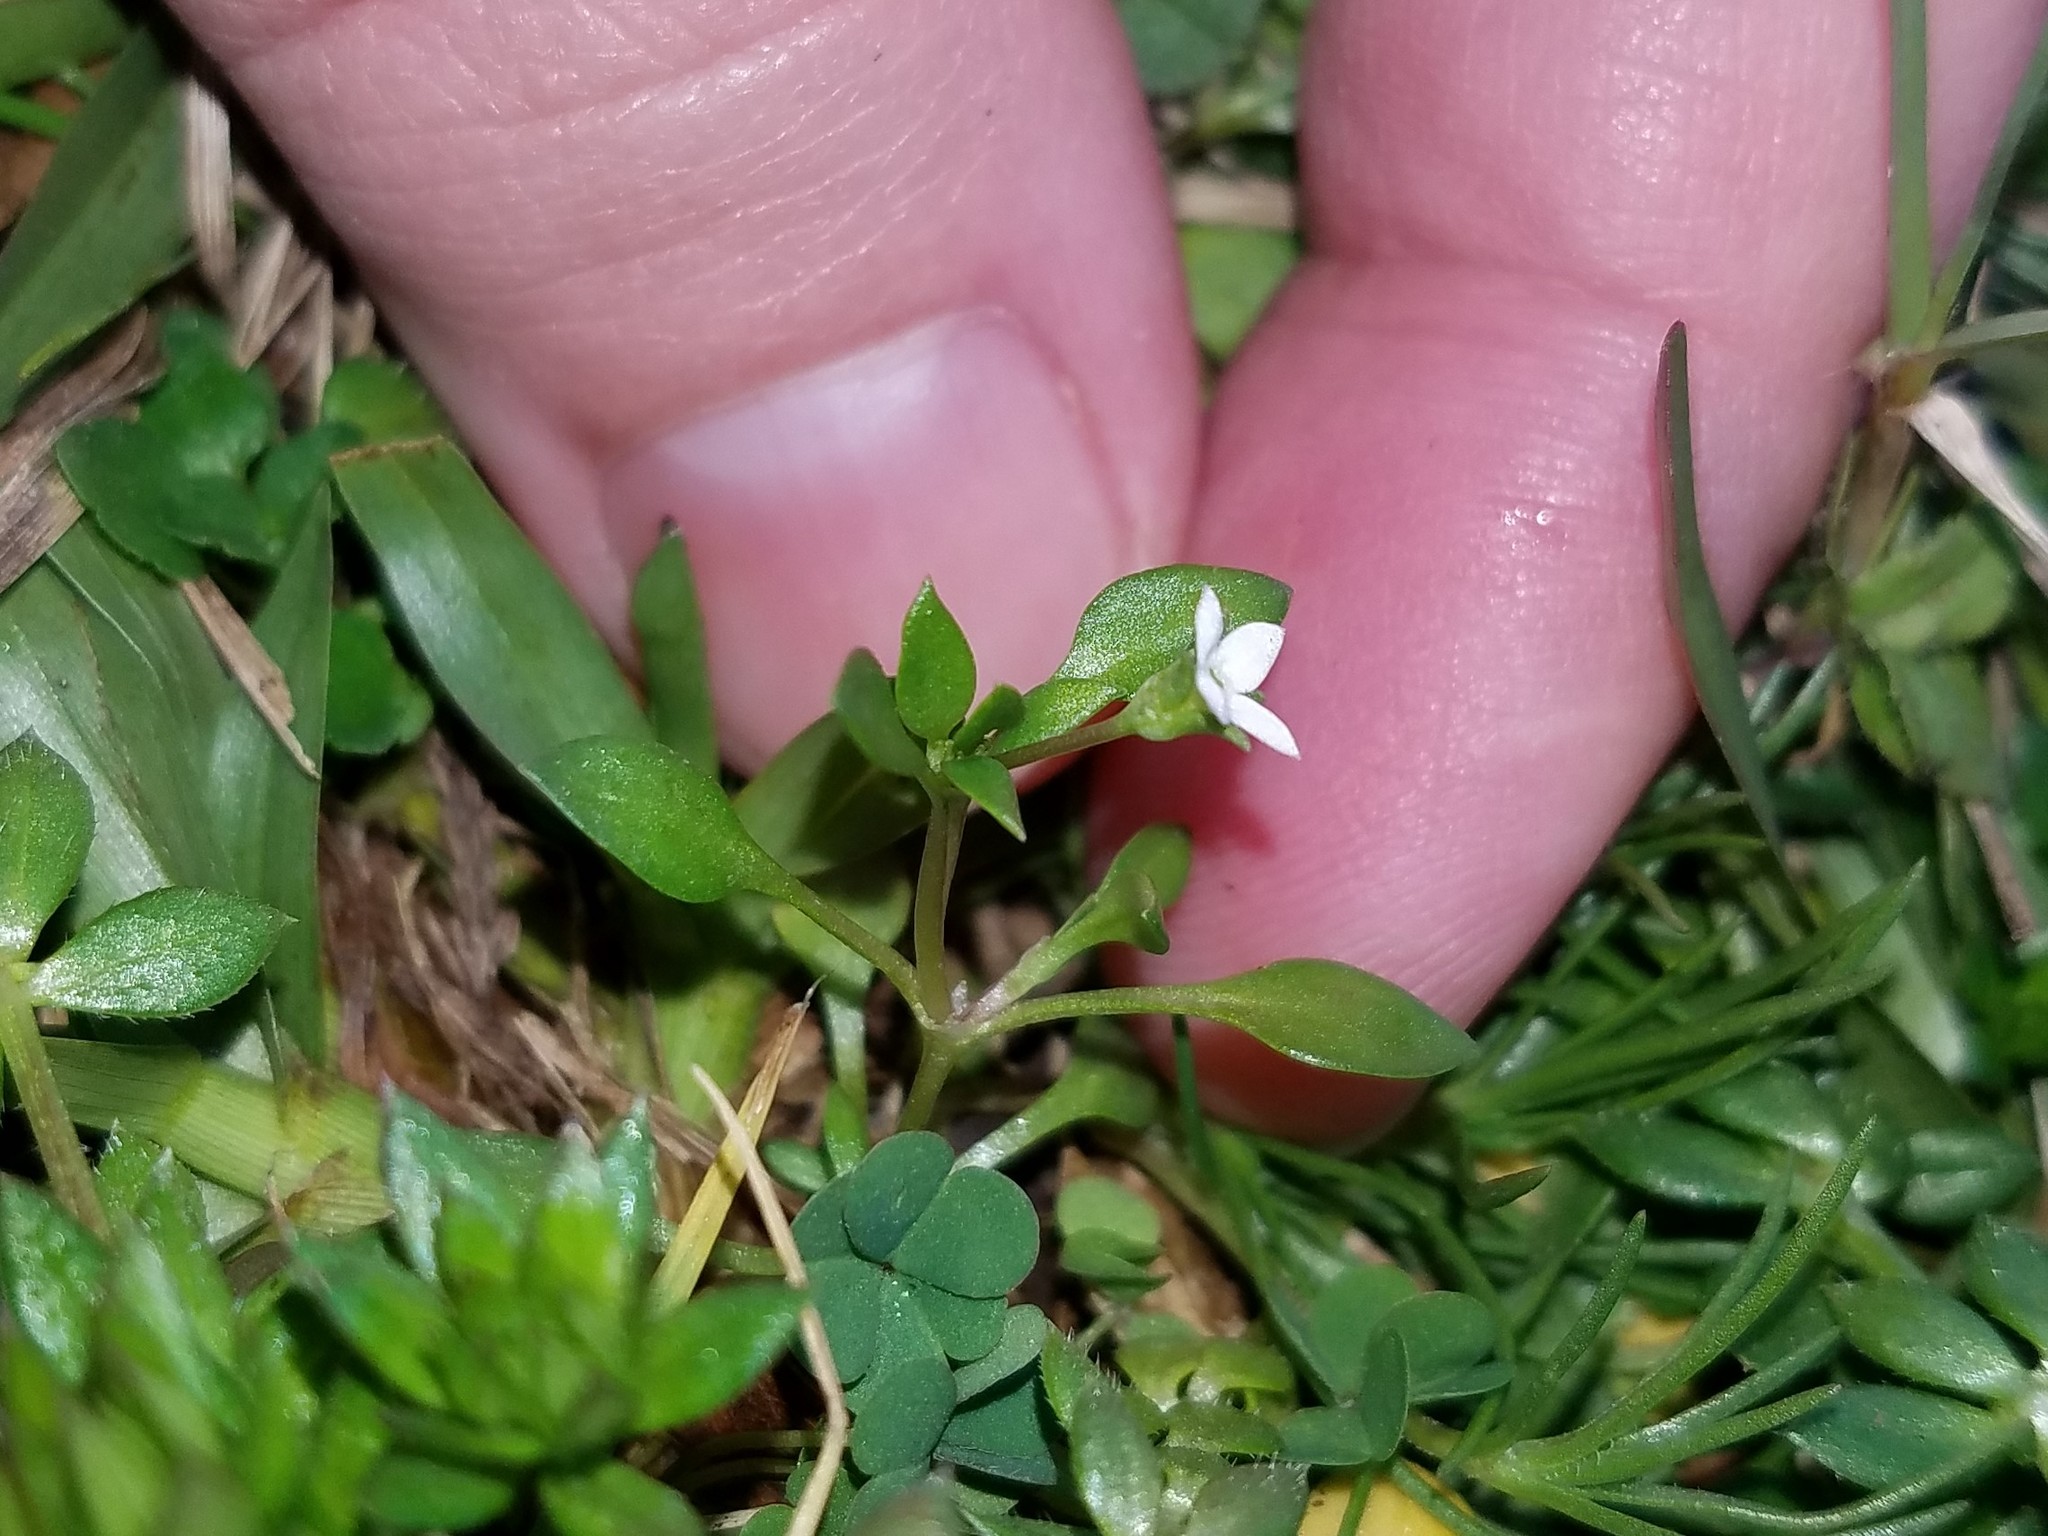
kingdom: Plantae
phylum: Tracheophyta
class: Magnoliopsida
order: Gentianales
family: Rubiaceae
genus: Houstonia
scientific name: Houstonia micrantha
